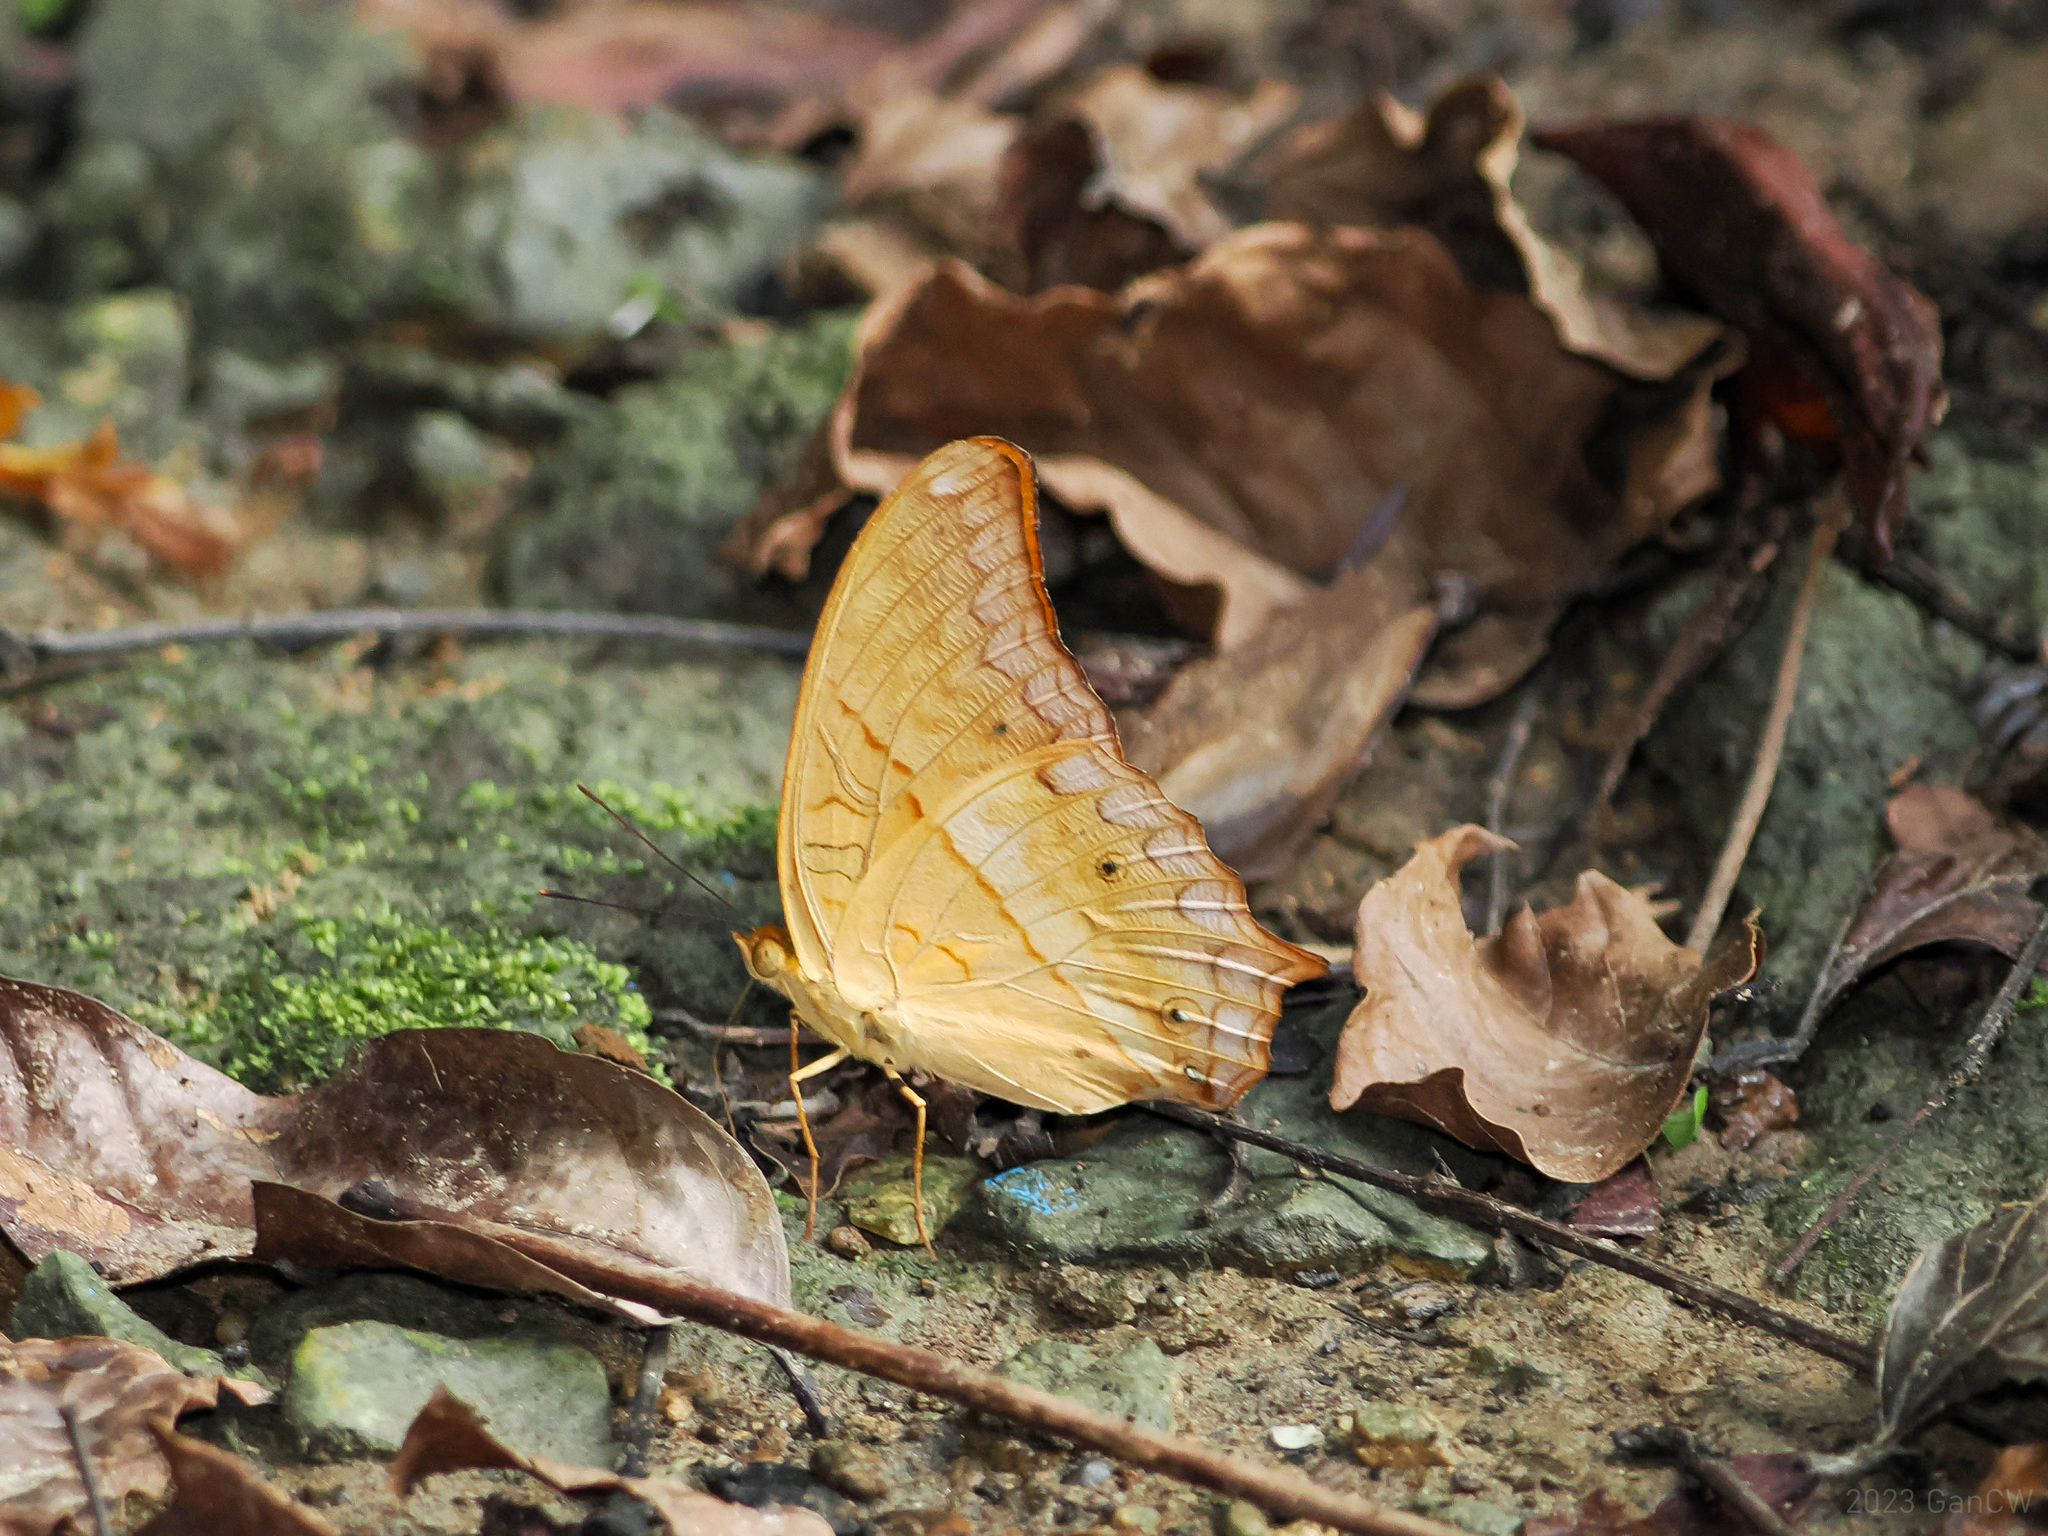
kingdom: Animalia
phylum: Arthropoda
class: Insecta
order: Lepidoptera
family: Nymphalidae
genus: Vindula
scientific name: Vindula deione
